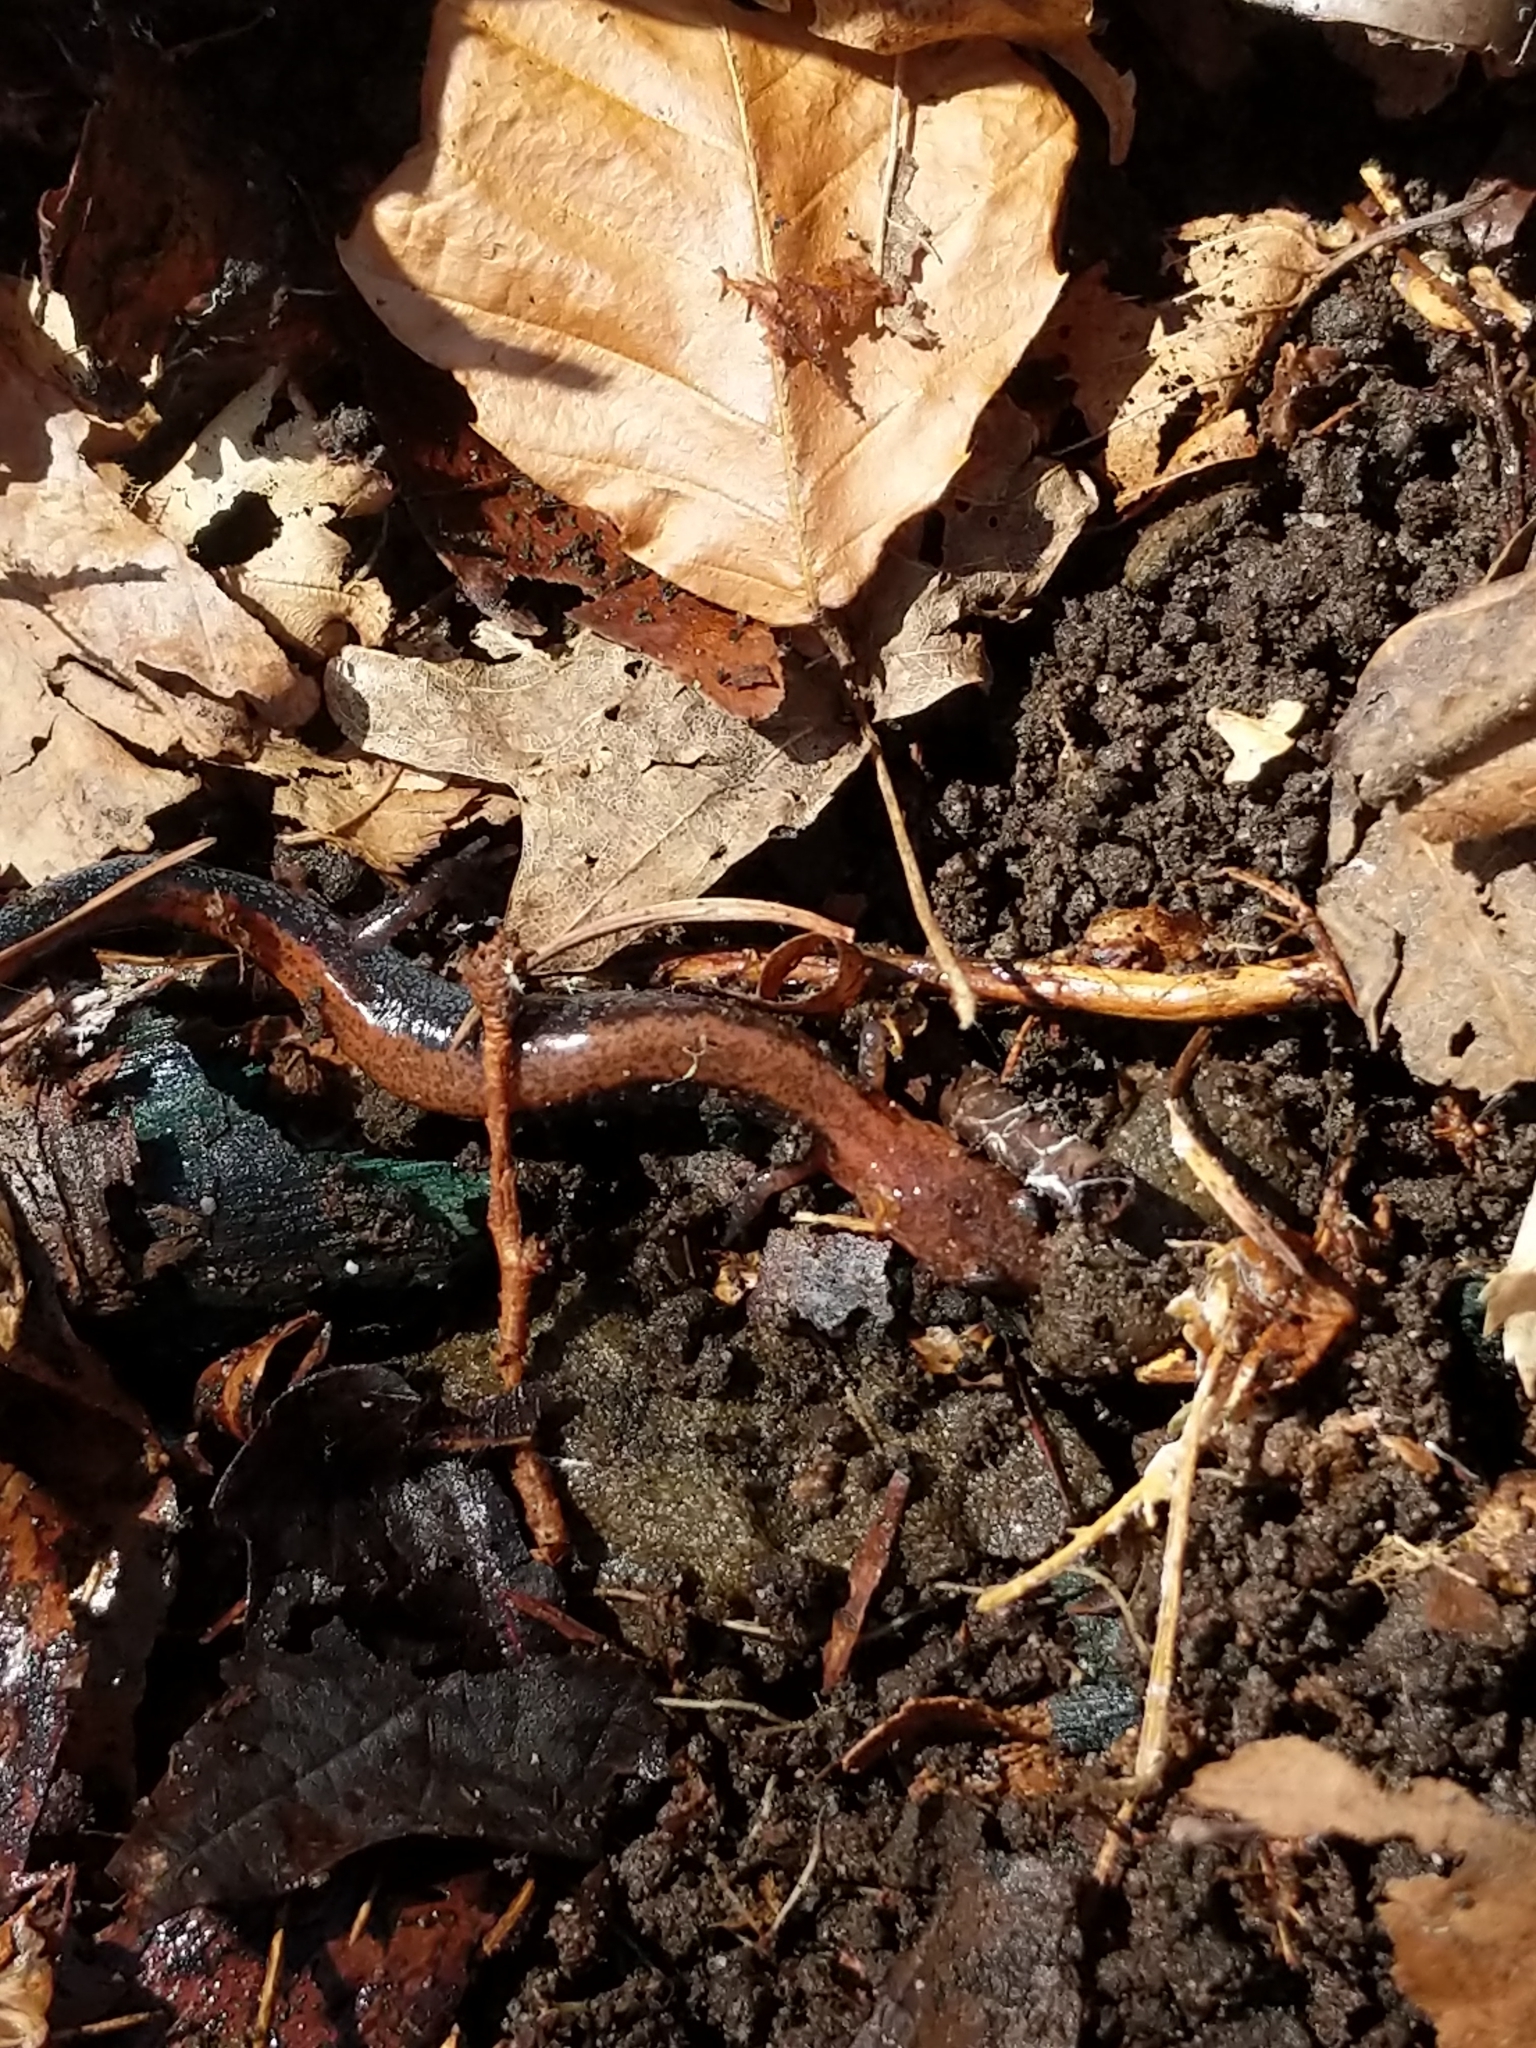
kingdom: Animalia
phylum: Chordata
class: Amphibia
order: Caudata
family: Plethodontidae
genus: Plethodon
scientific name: Plethodon cinereus
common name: Redback salamander
